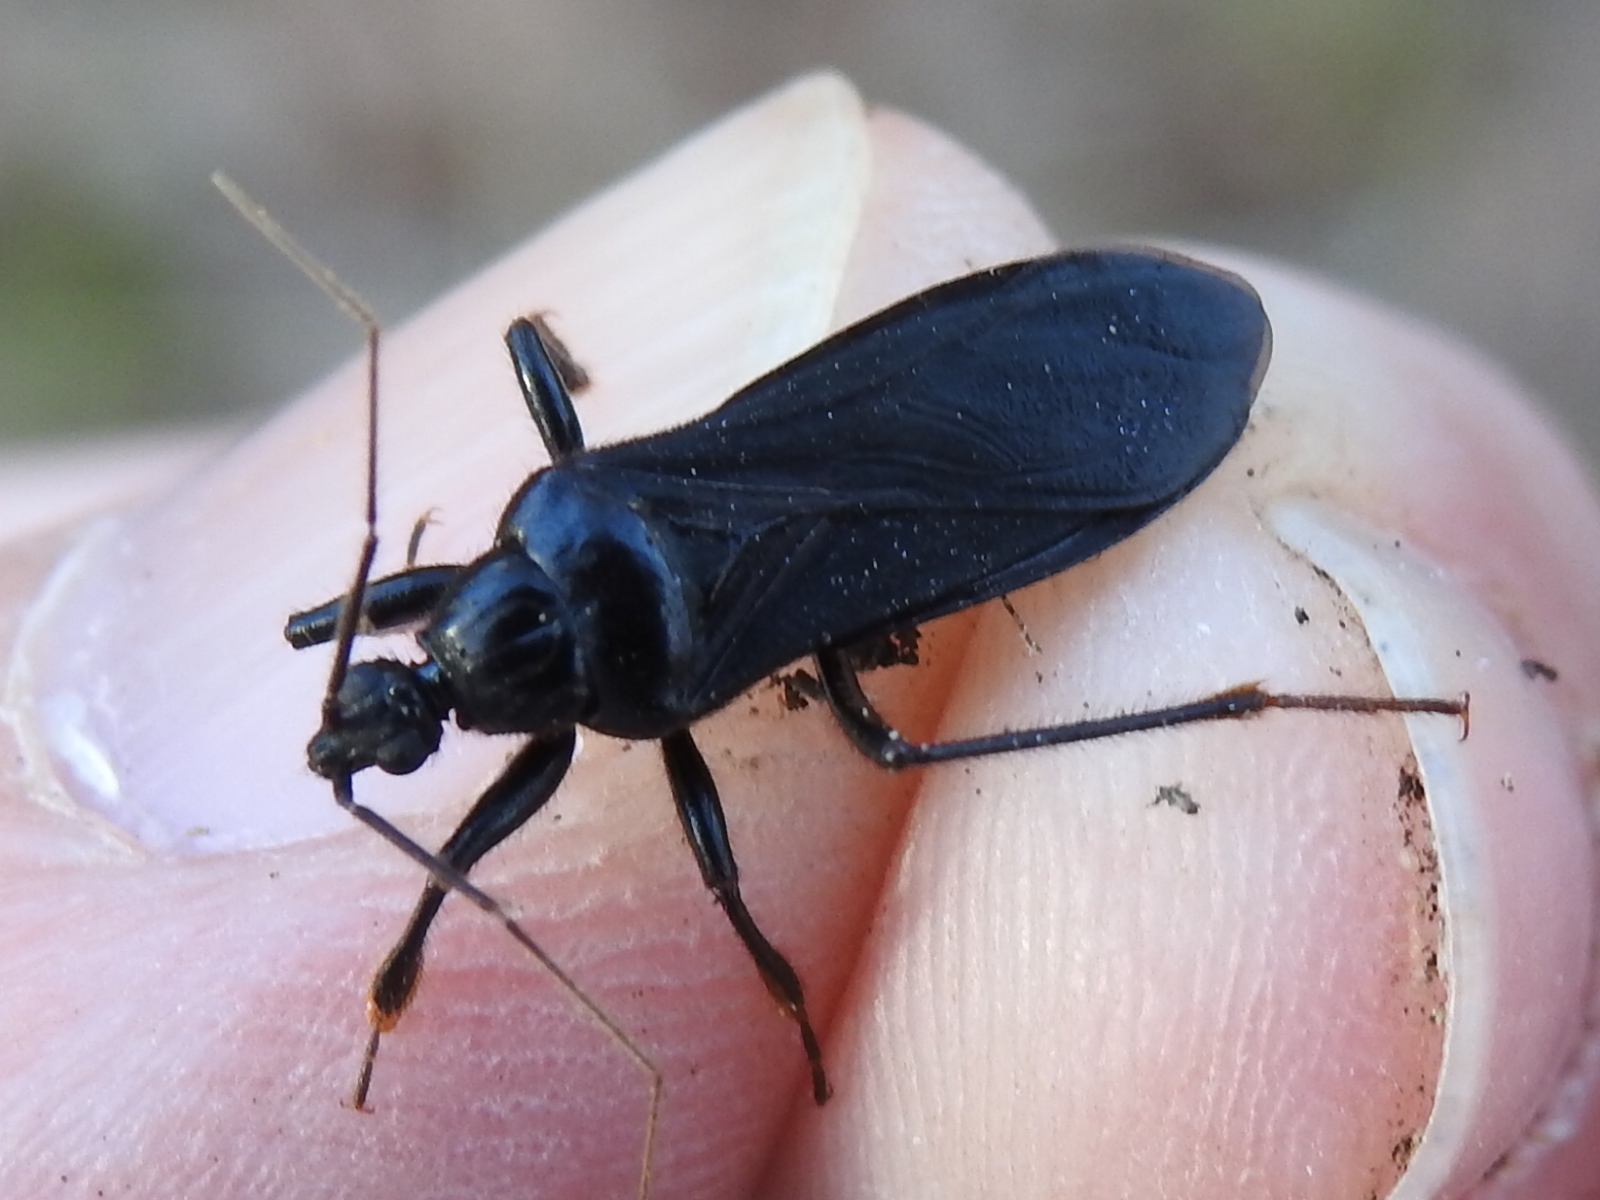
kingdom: Animalia
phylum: Arthropoda
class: Insecta
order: Hemiptera
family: Reduviidae
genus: Melanolestes
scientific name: Melanolestes picipes
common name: Assassin bug
